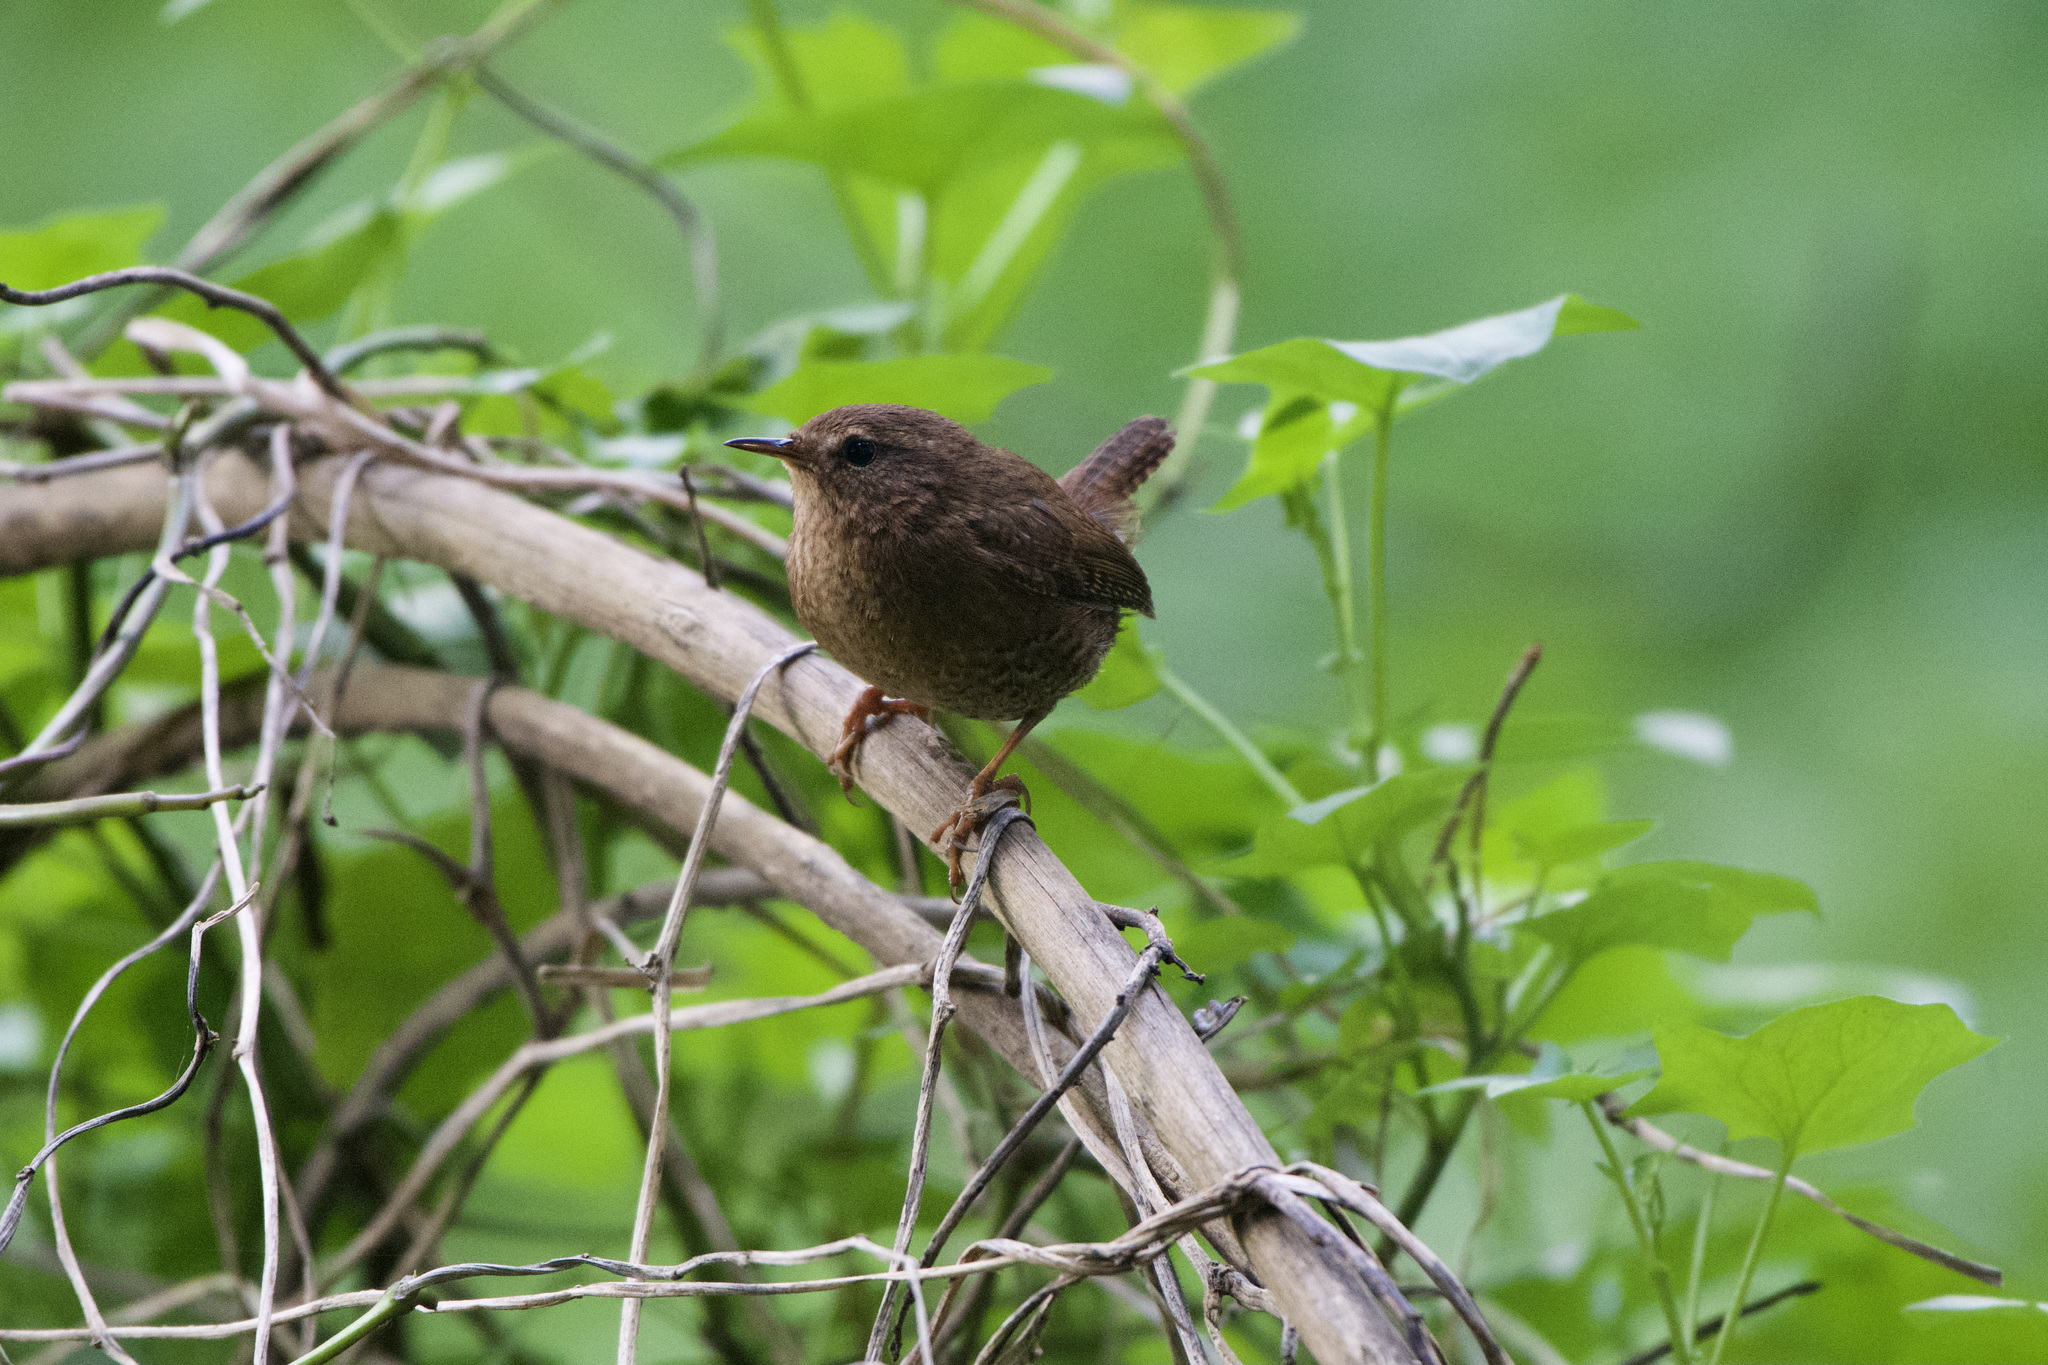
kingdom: Animalia
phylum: Chordata
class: Aves
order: Passeriformes
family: Troglodytidae
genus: Troglodytes
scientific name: Troglodytes pacificus
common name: Pacific wren
